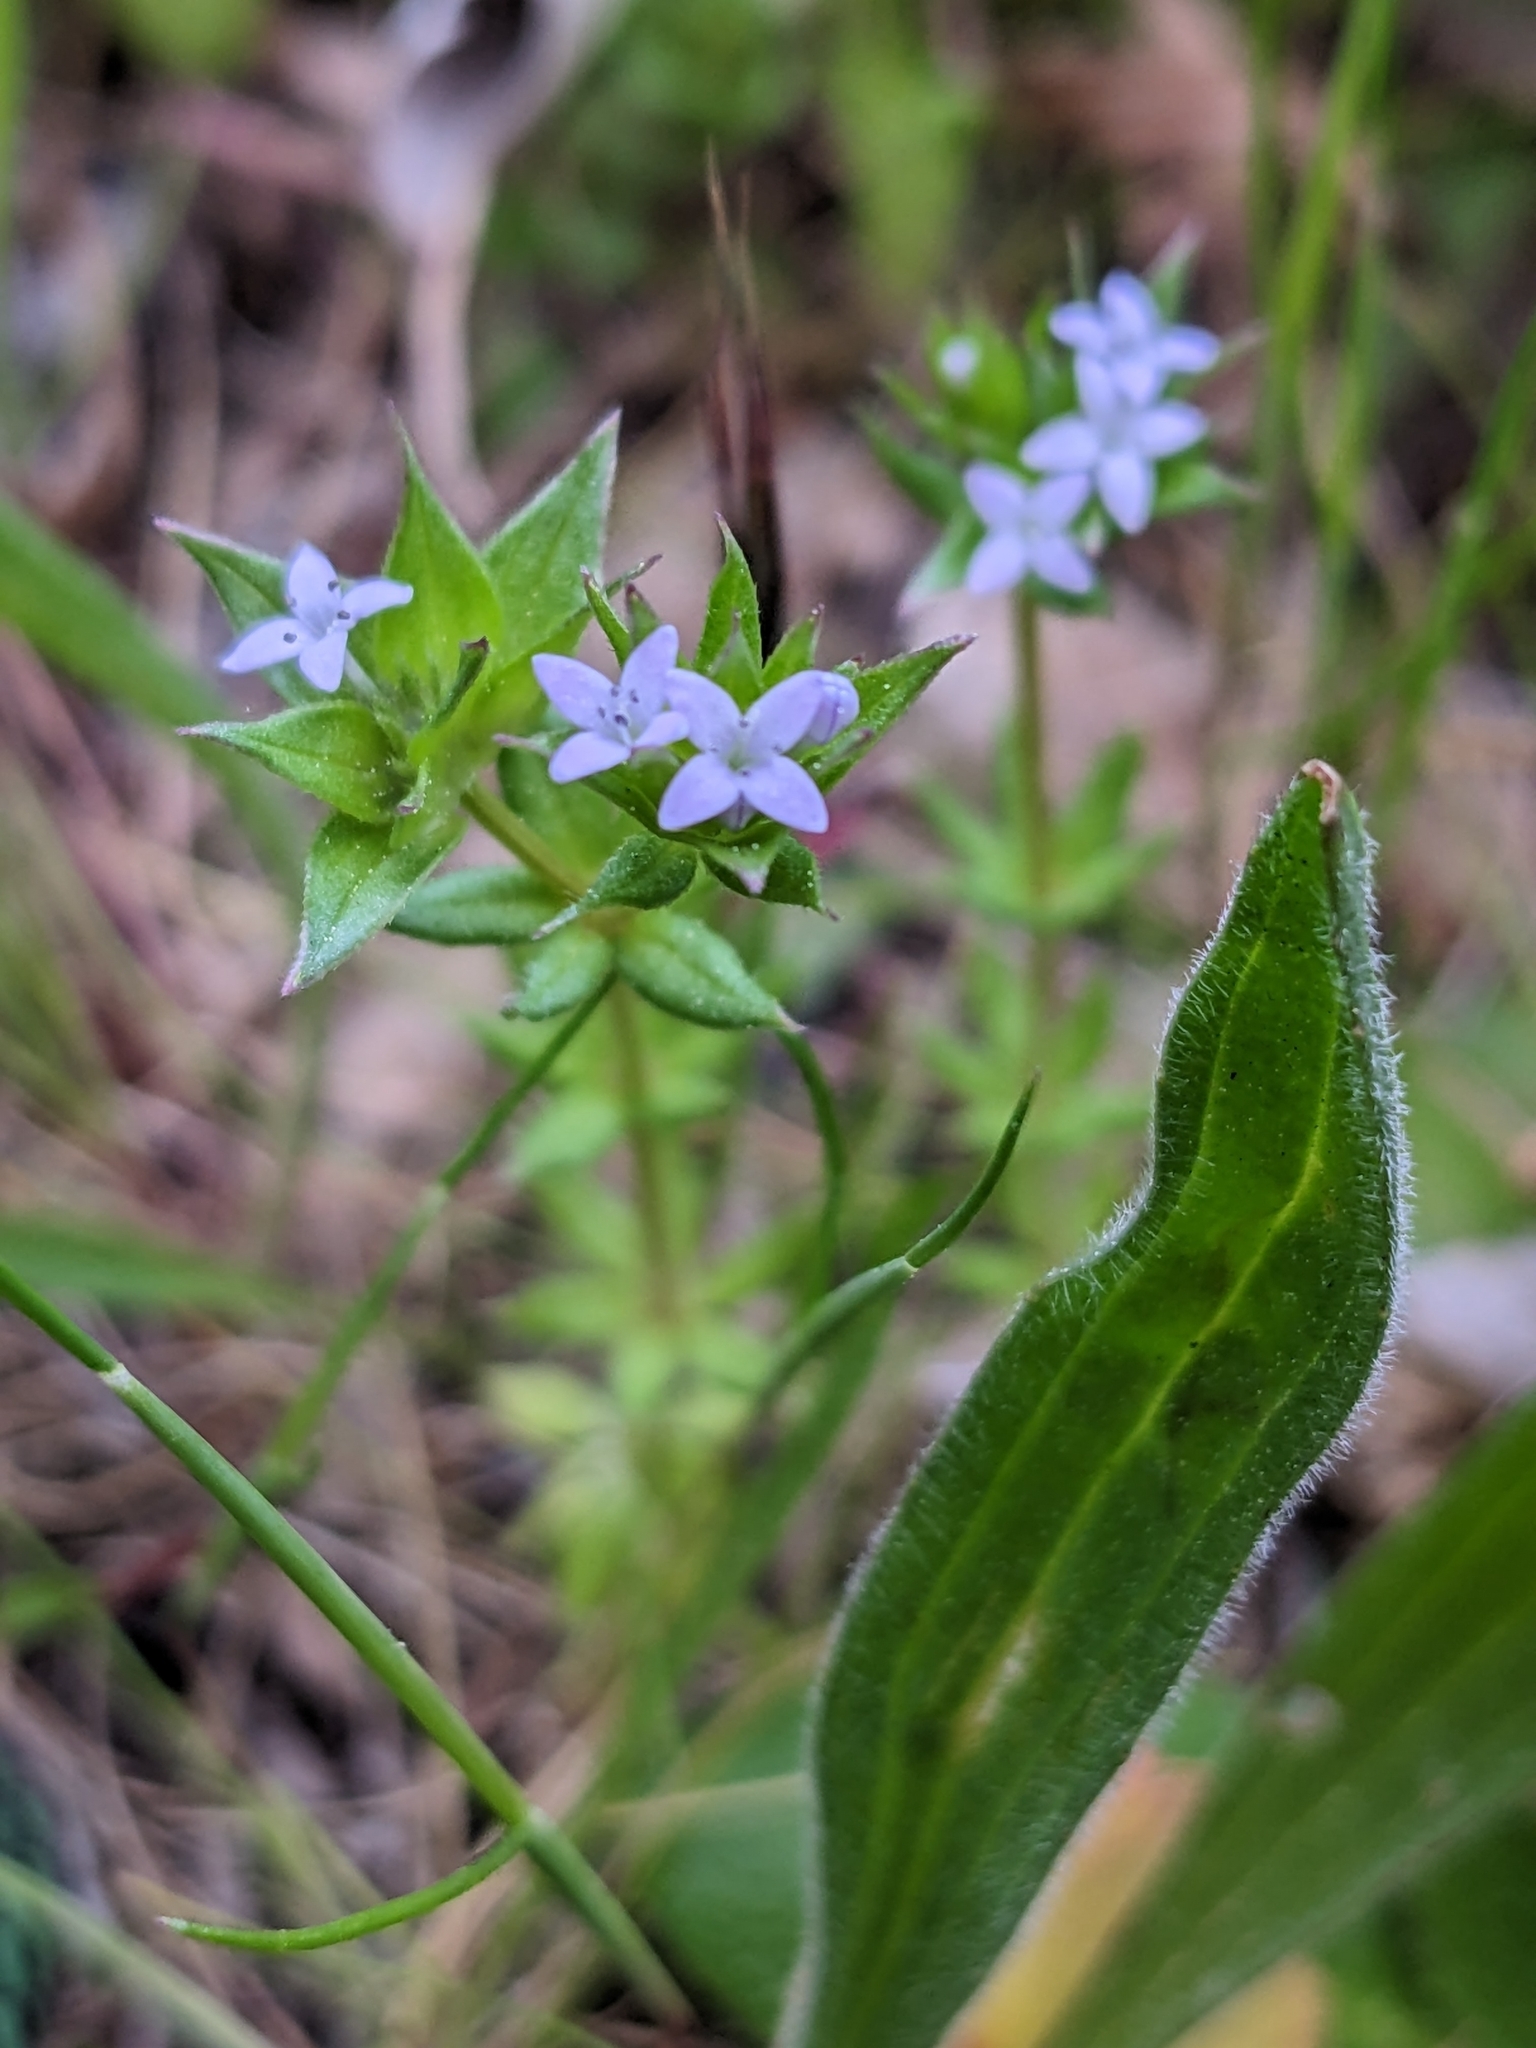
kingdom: Plantae
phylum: Tracheophyta
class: Magnoliopsida
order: Gentianales
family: Rubiaceae
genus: Sherardia
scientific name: Sherardia arvensis
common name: Field madder
